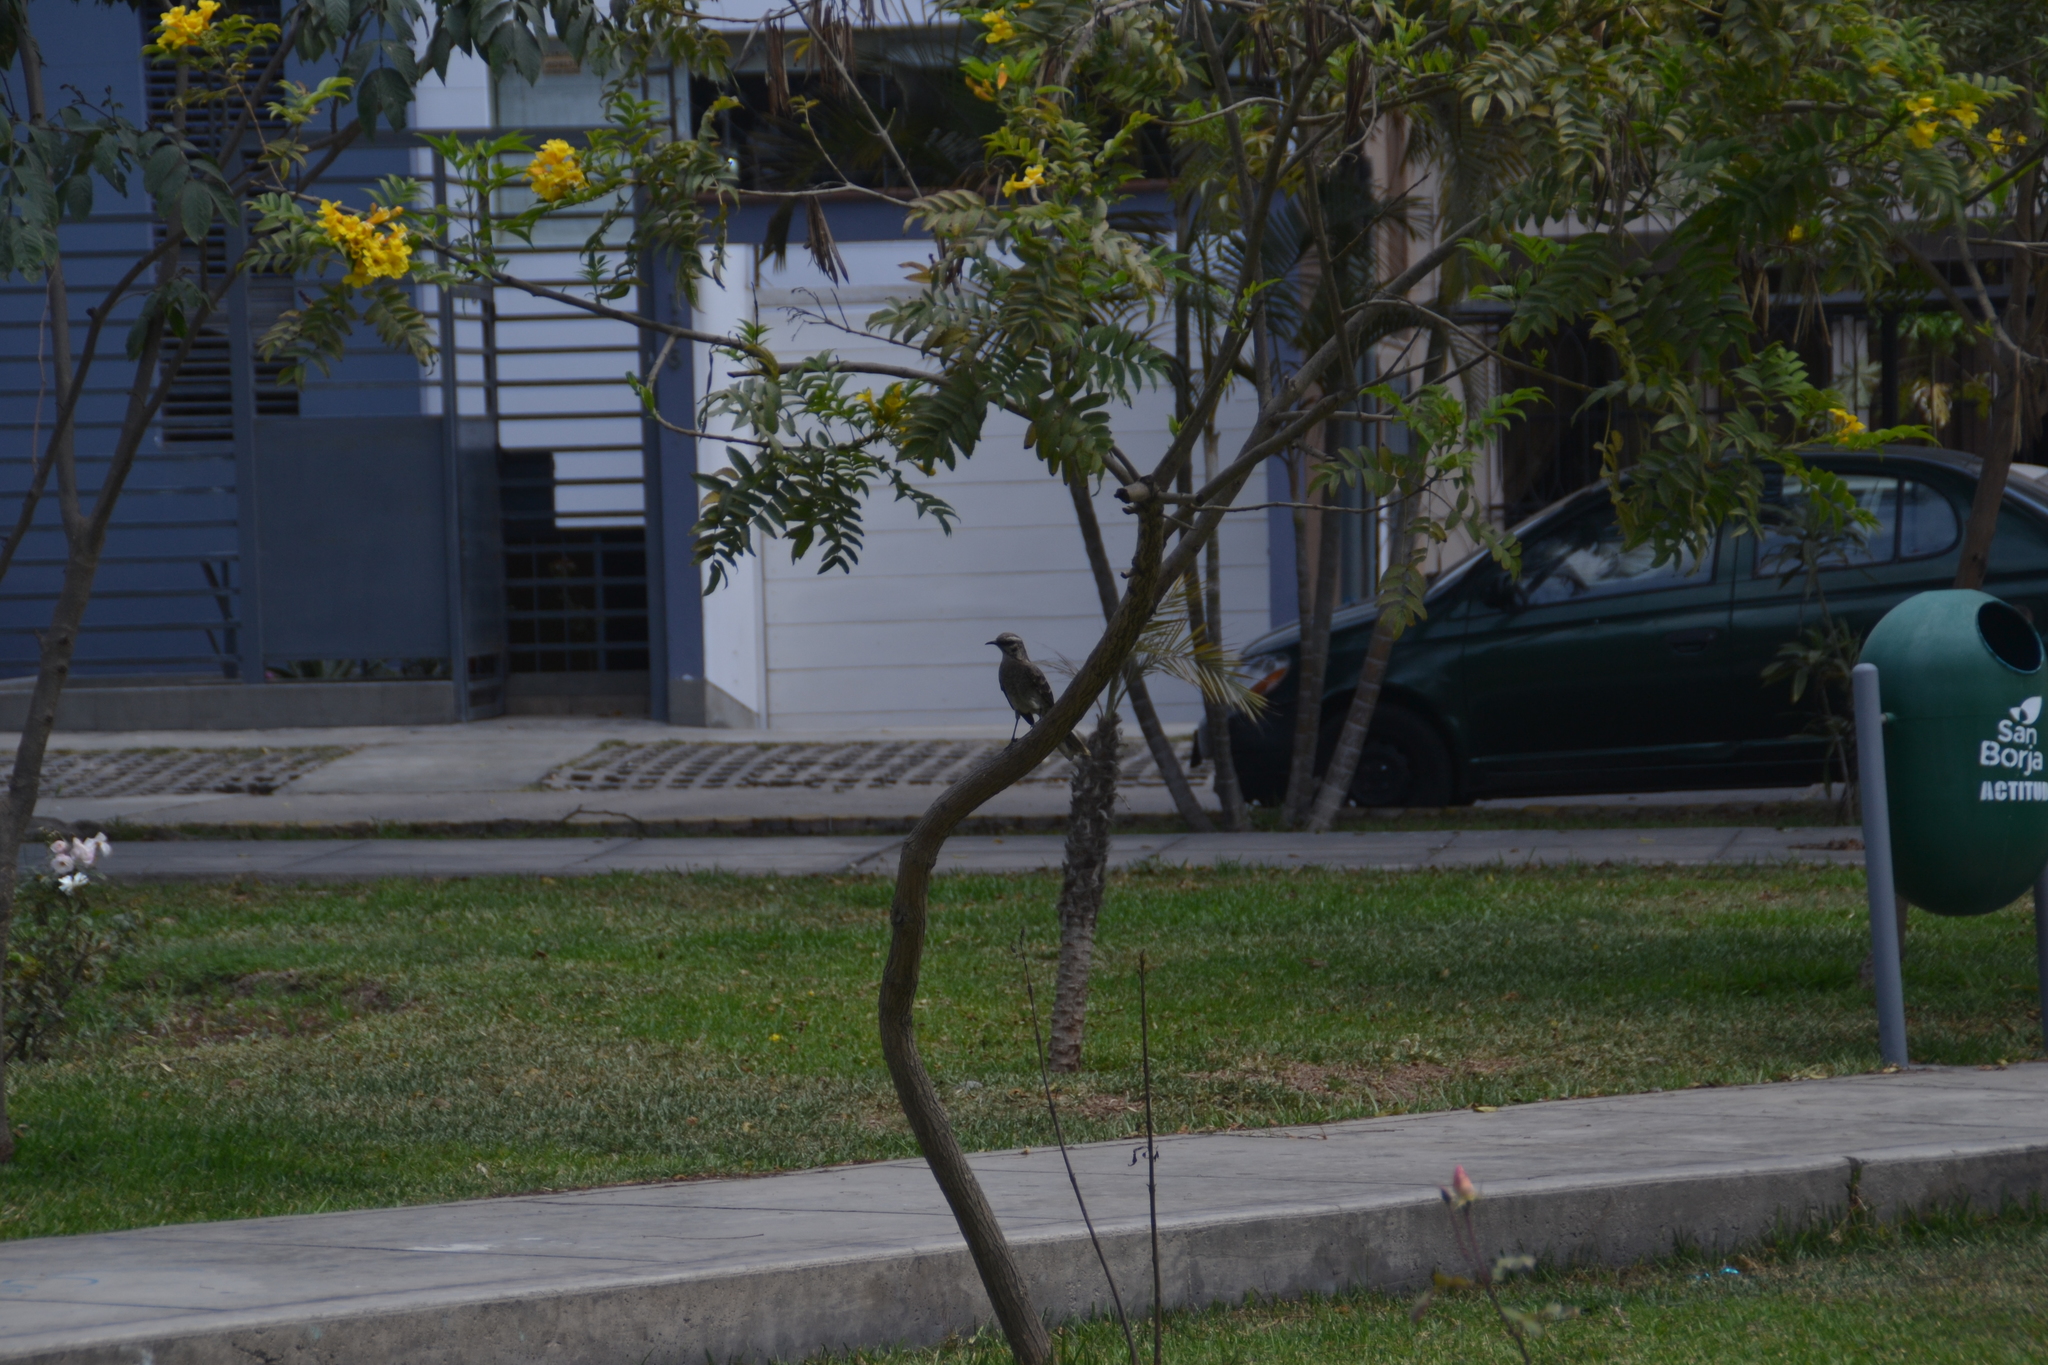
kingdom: Animalia
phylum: Chordata
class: Aves
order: Passeriformes
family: Mimidae
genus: Mimus
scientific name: Mimus longicaudatus
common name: Long-tailed mockingbird
